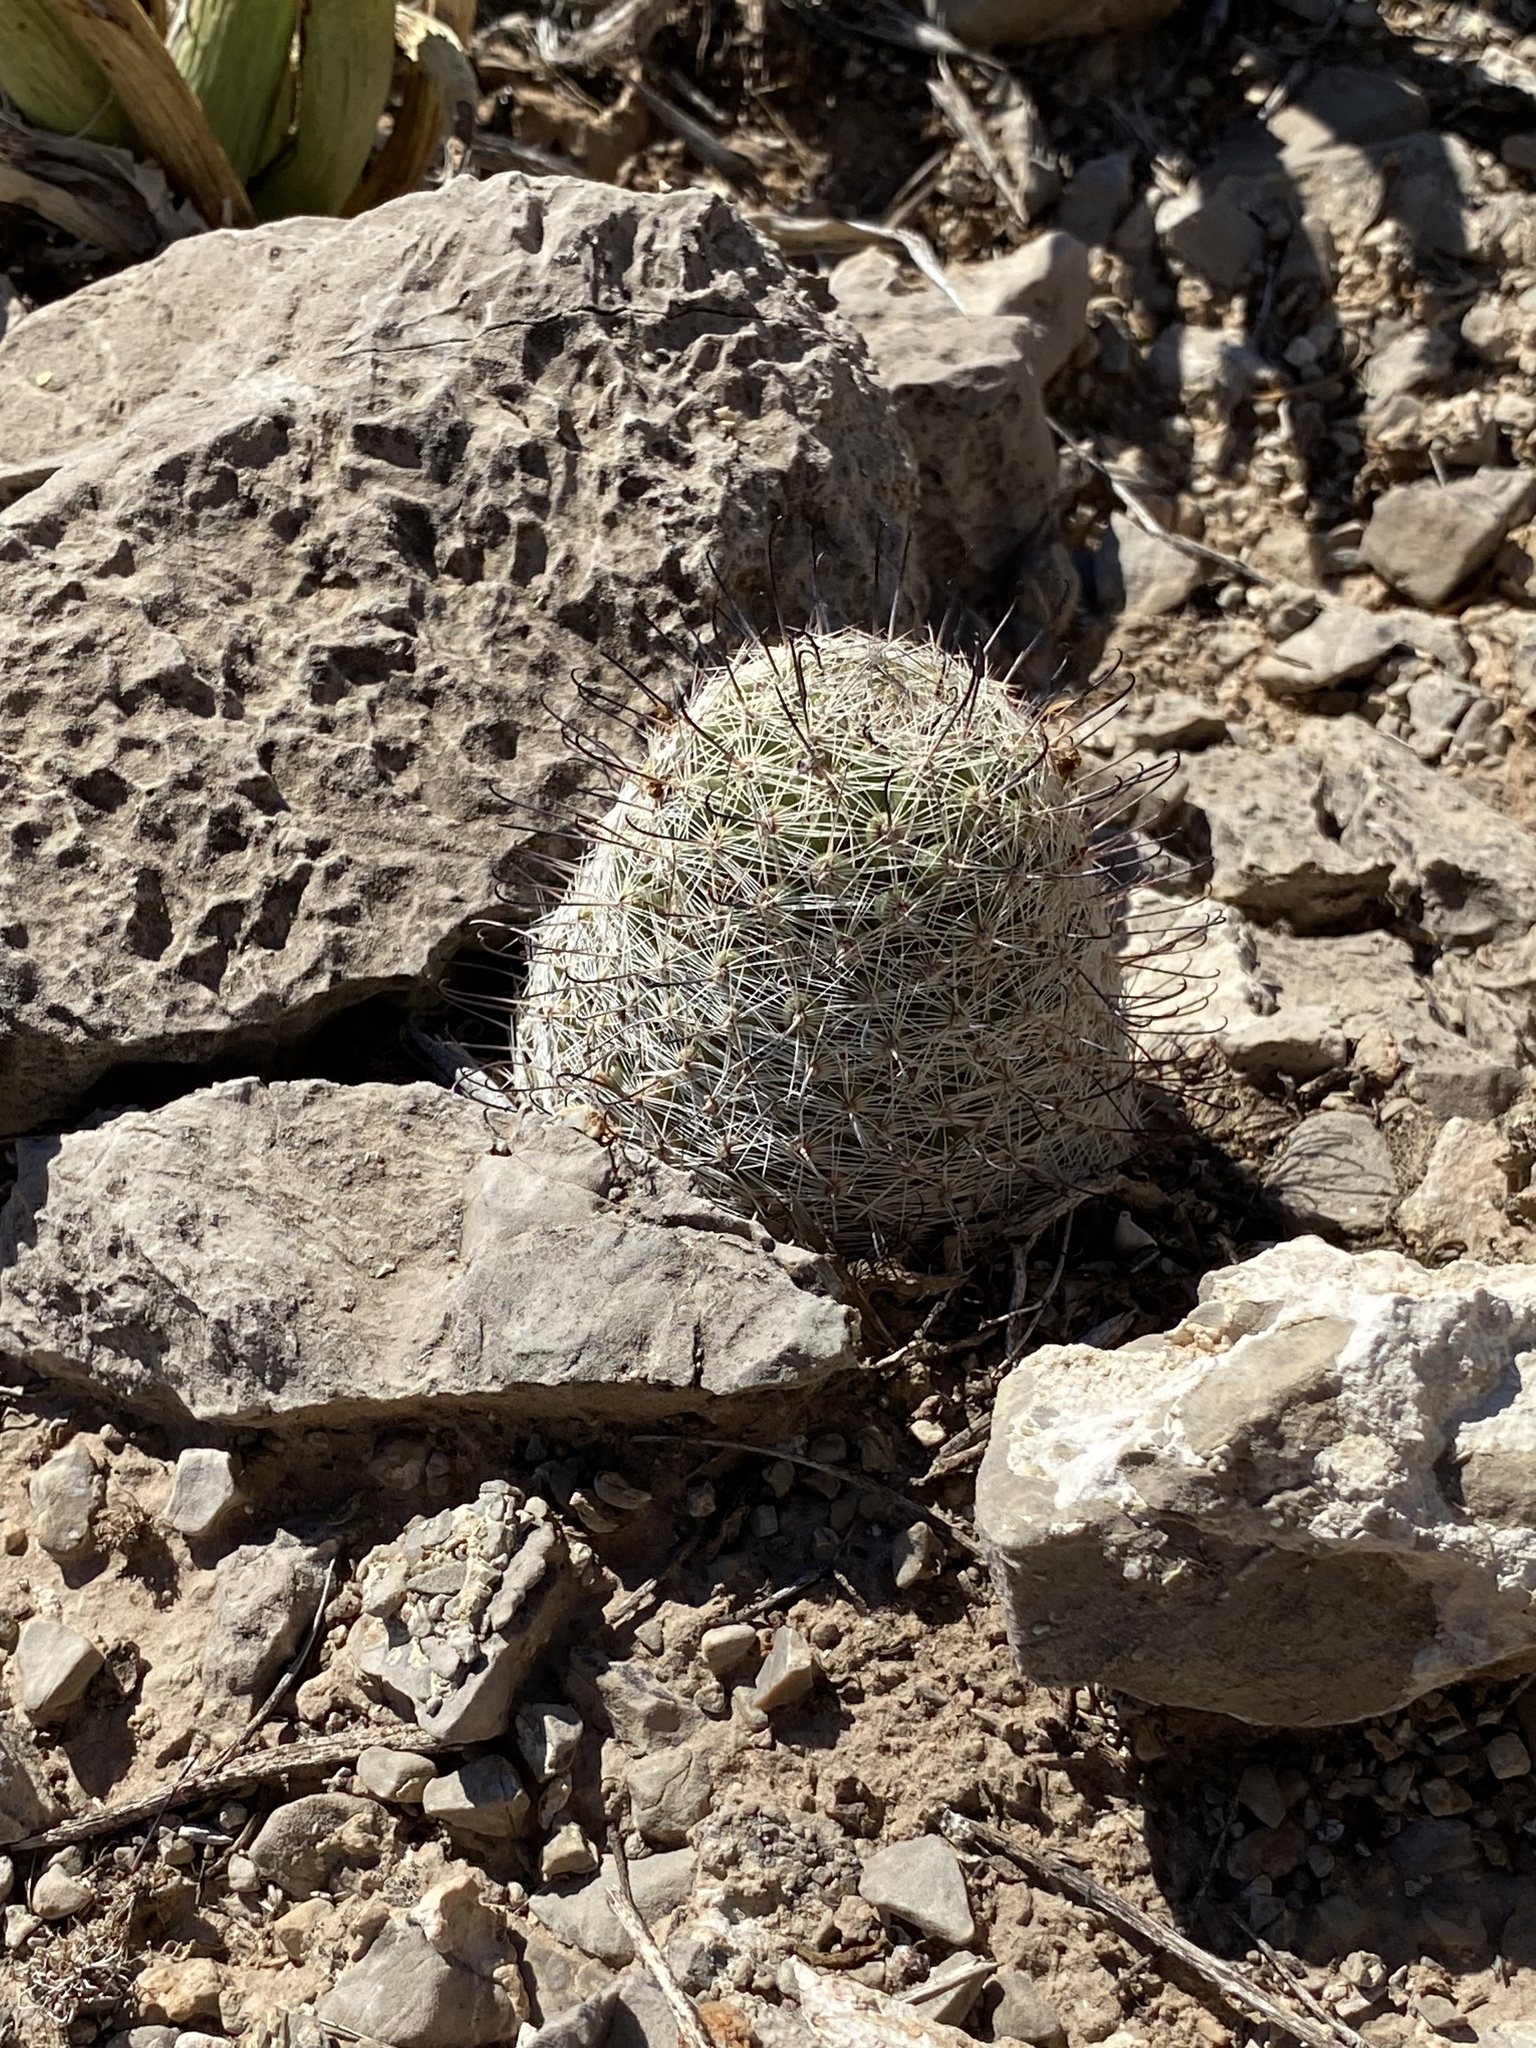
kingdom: Plantae
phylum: Tracheophyta
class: Magnoliopsida
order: Caryophyllales
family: Cactaceae
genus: Cochemiea
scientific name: Cochemiea grahamii
